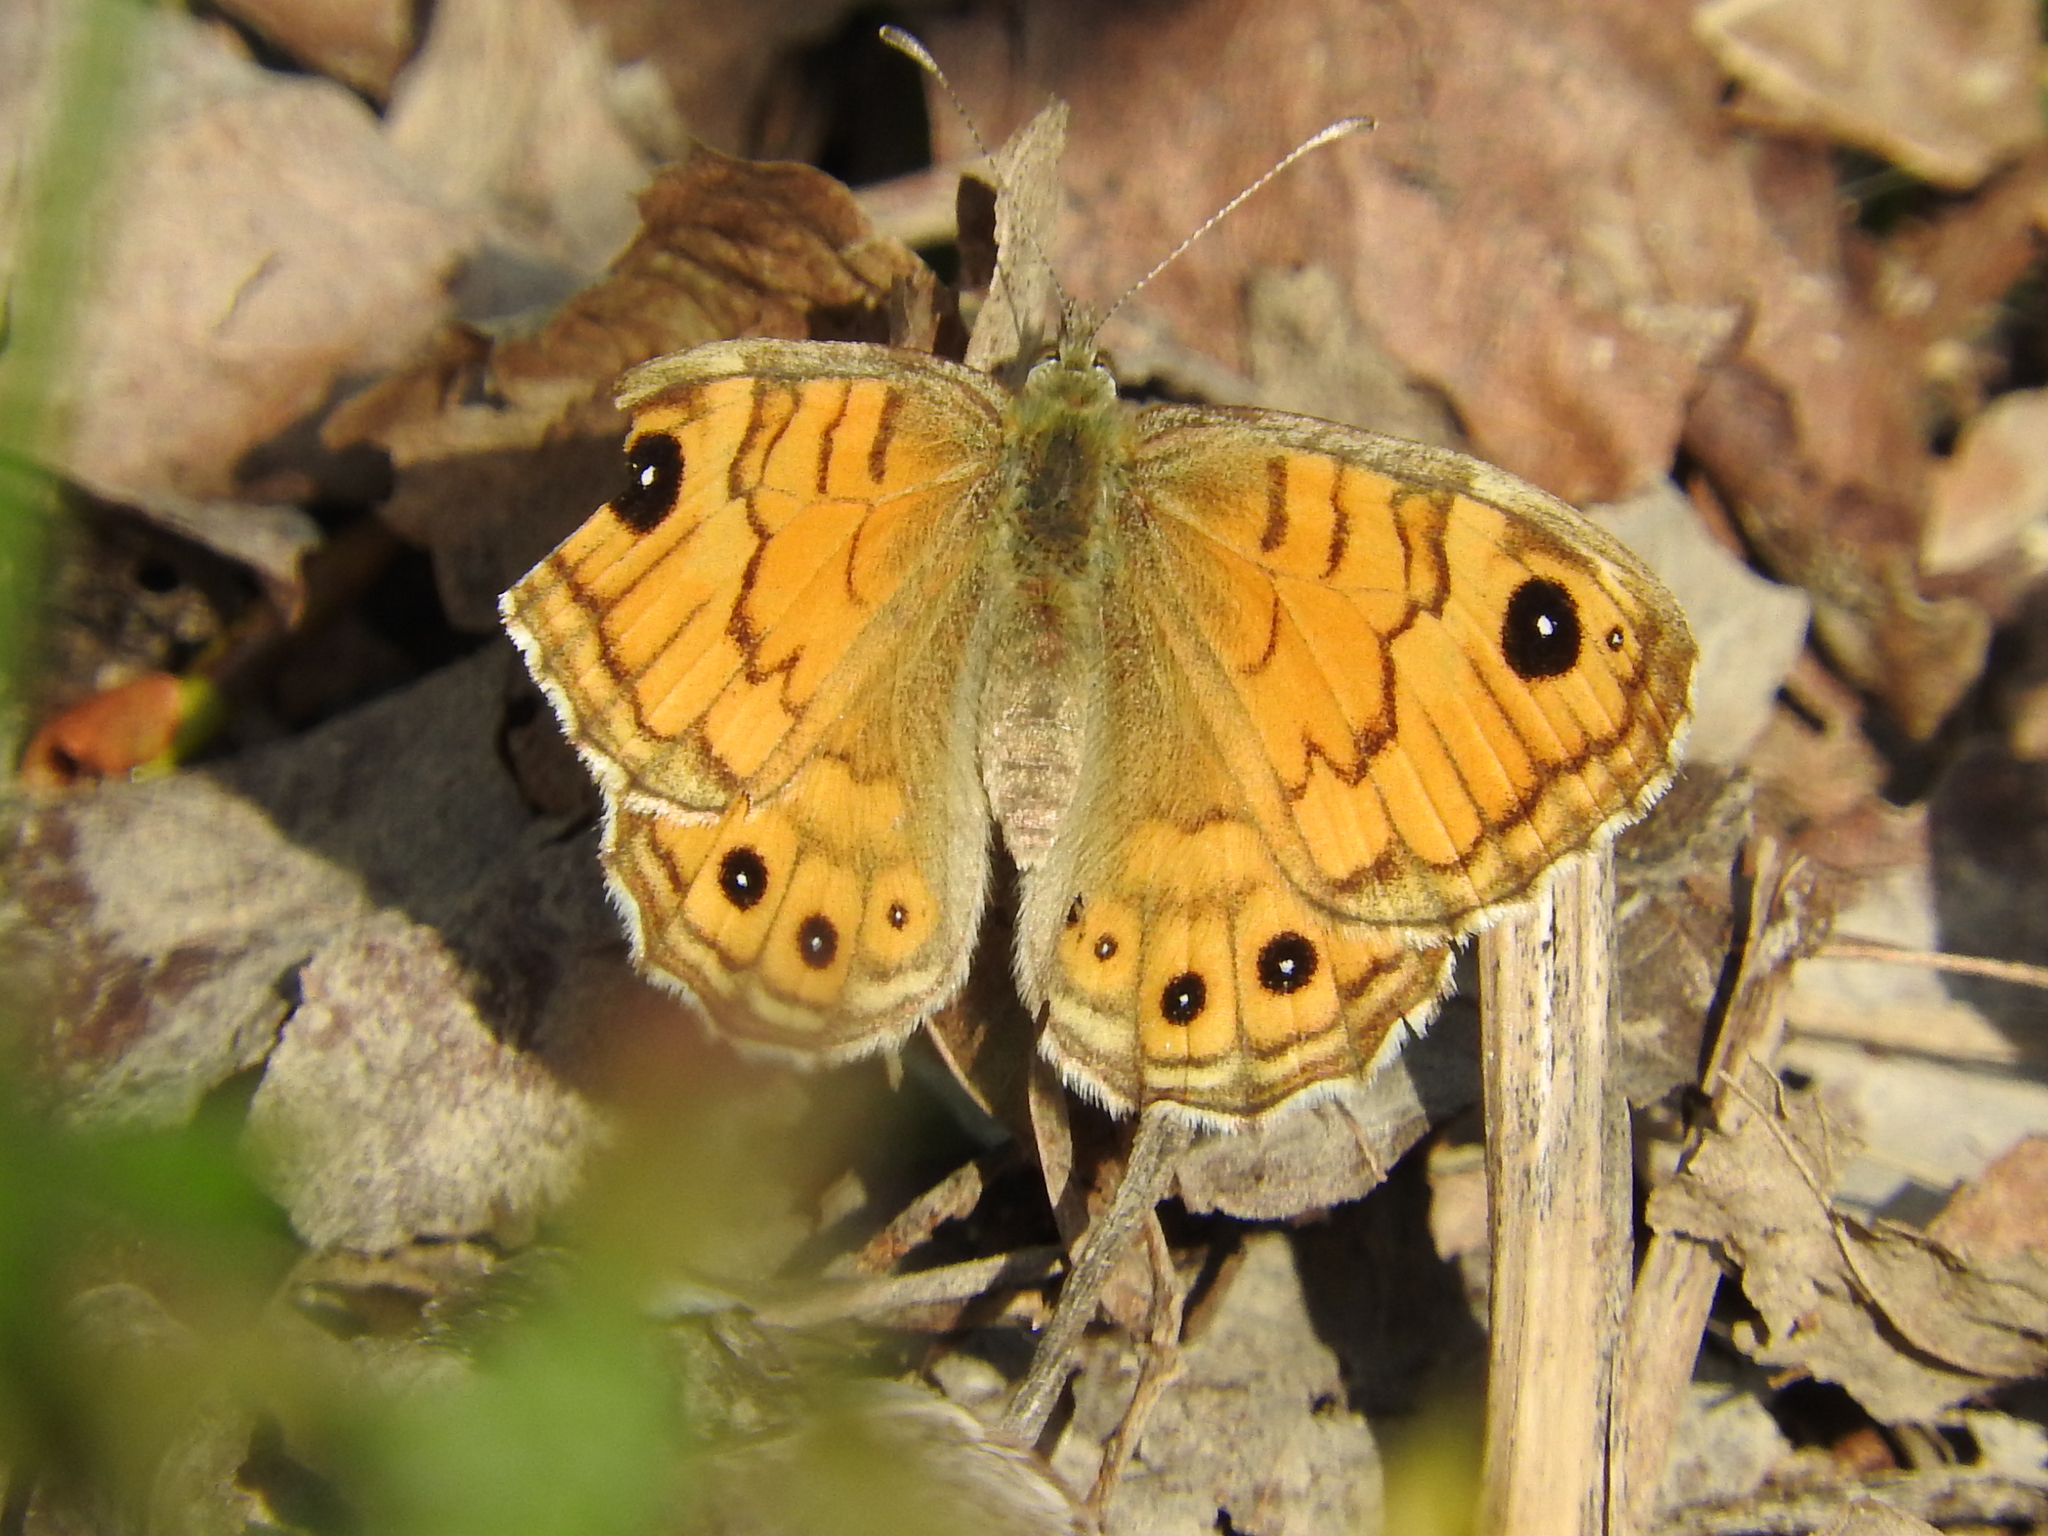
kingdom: Animalia
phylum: Arthropoda
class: Insecta
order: Lepidoptera
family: Nymphalidae
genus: Pararge
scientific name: Pararge Lasiommata megera
